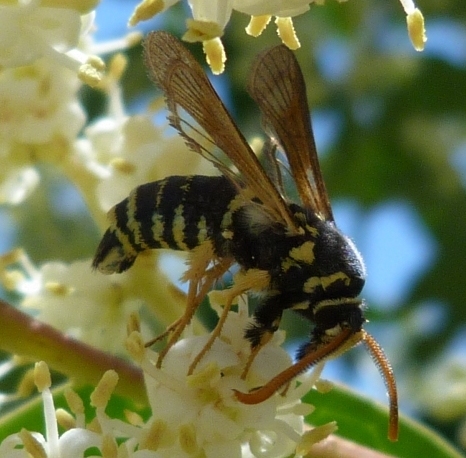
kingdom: Animalia
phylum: Arthropoda
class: Insecta
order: Lepidoptera
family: Sesiidae
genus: Paranthrene
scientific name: Paranthrene tabaniformis
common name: Dusky clearwing
